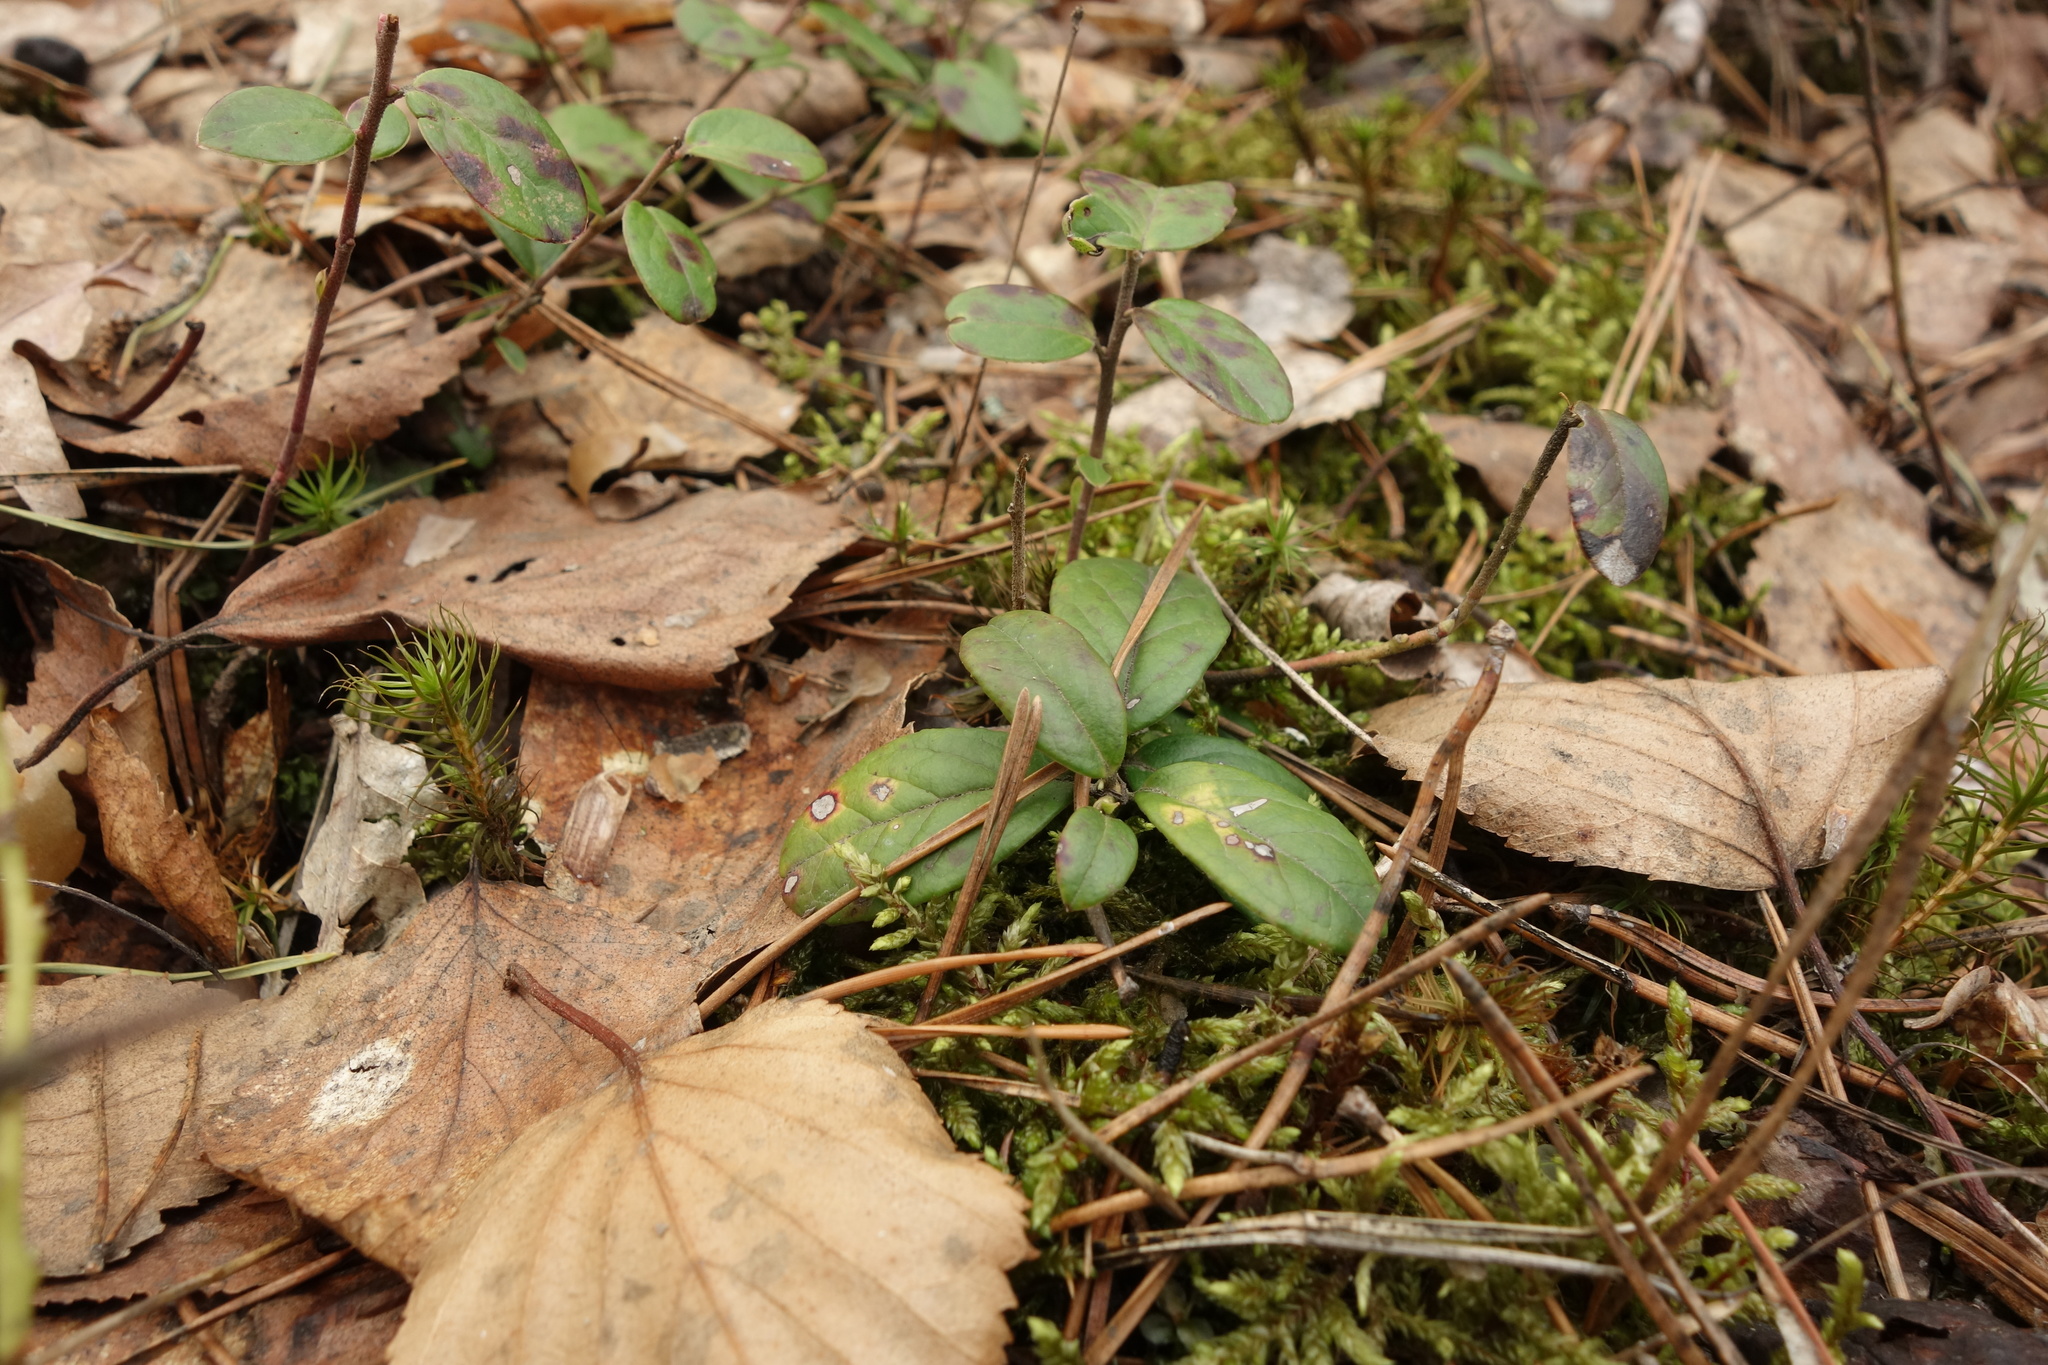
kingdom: Plantae
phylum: Tracheophyta
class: Magnoliopsida
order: Ericales
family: Ericaceae
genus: Vaccinium
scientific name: Vaccinium vitis-idaea
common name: Cowberry
